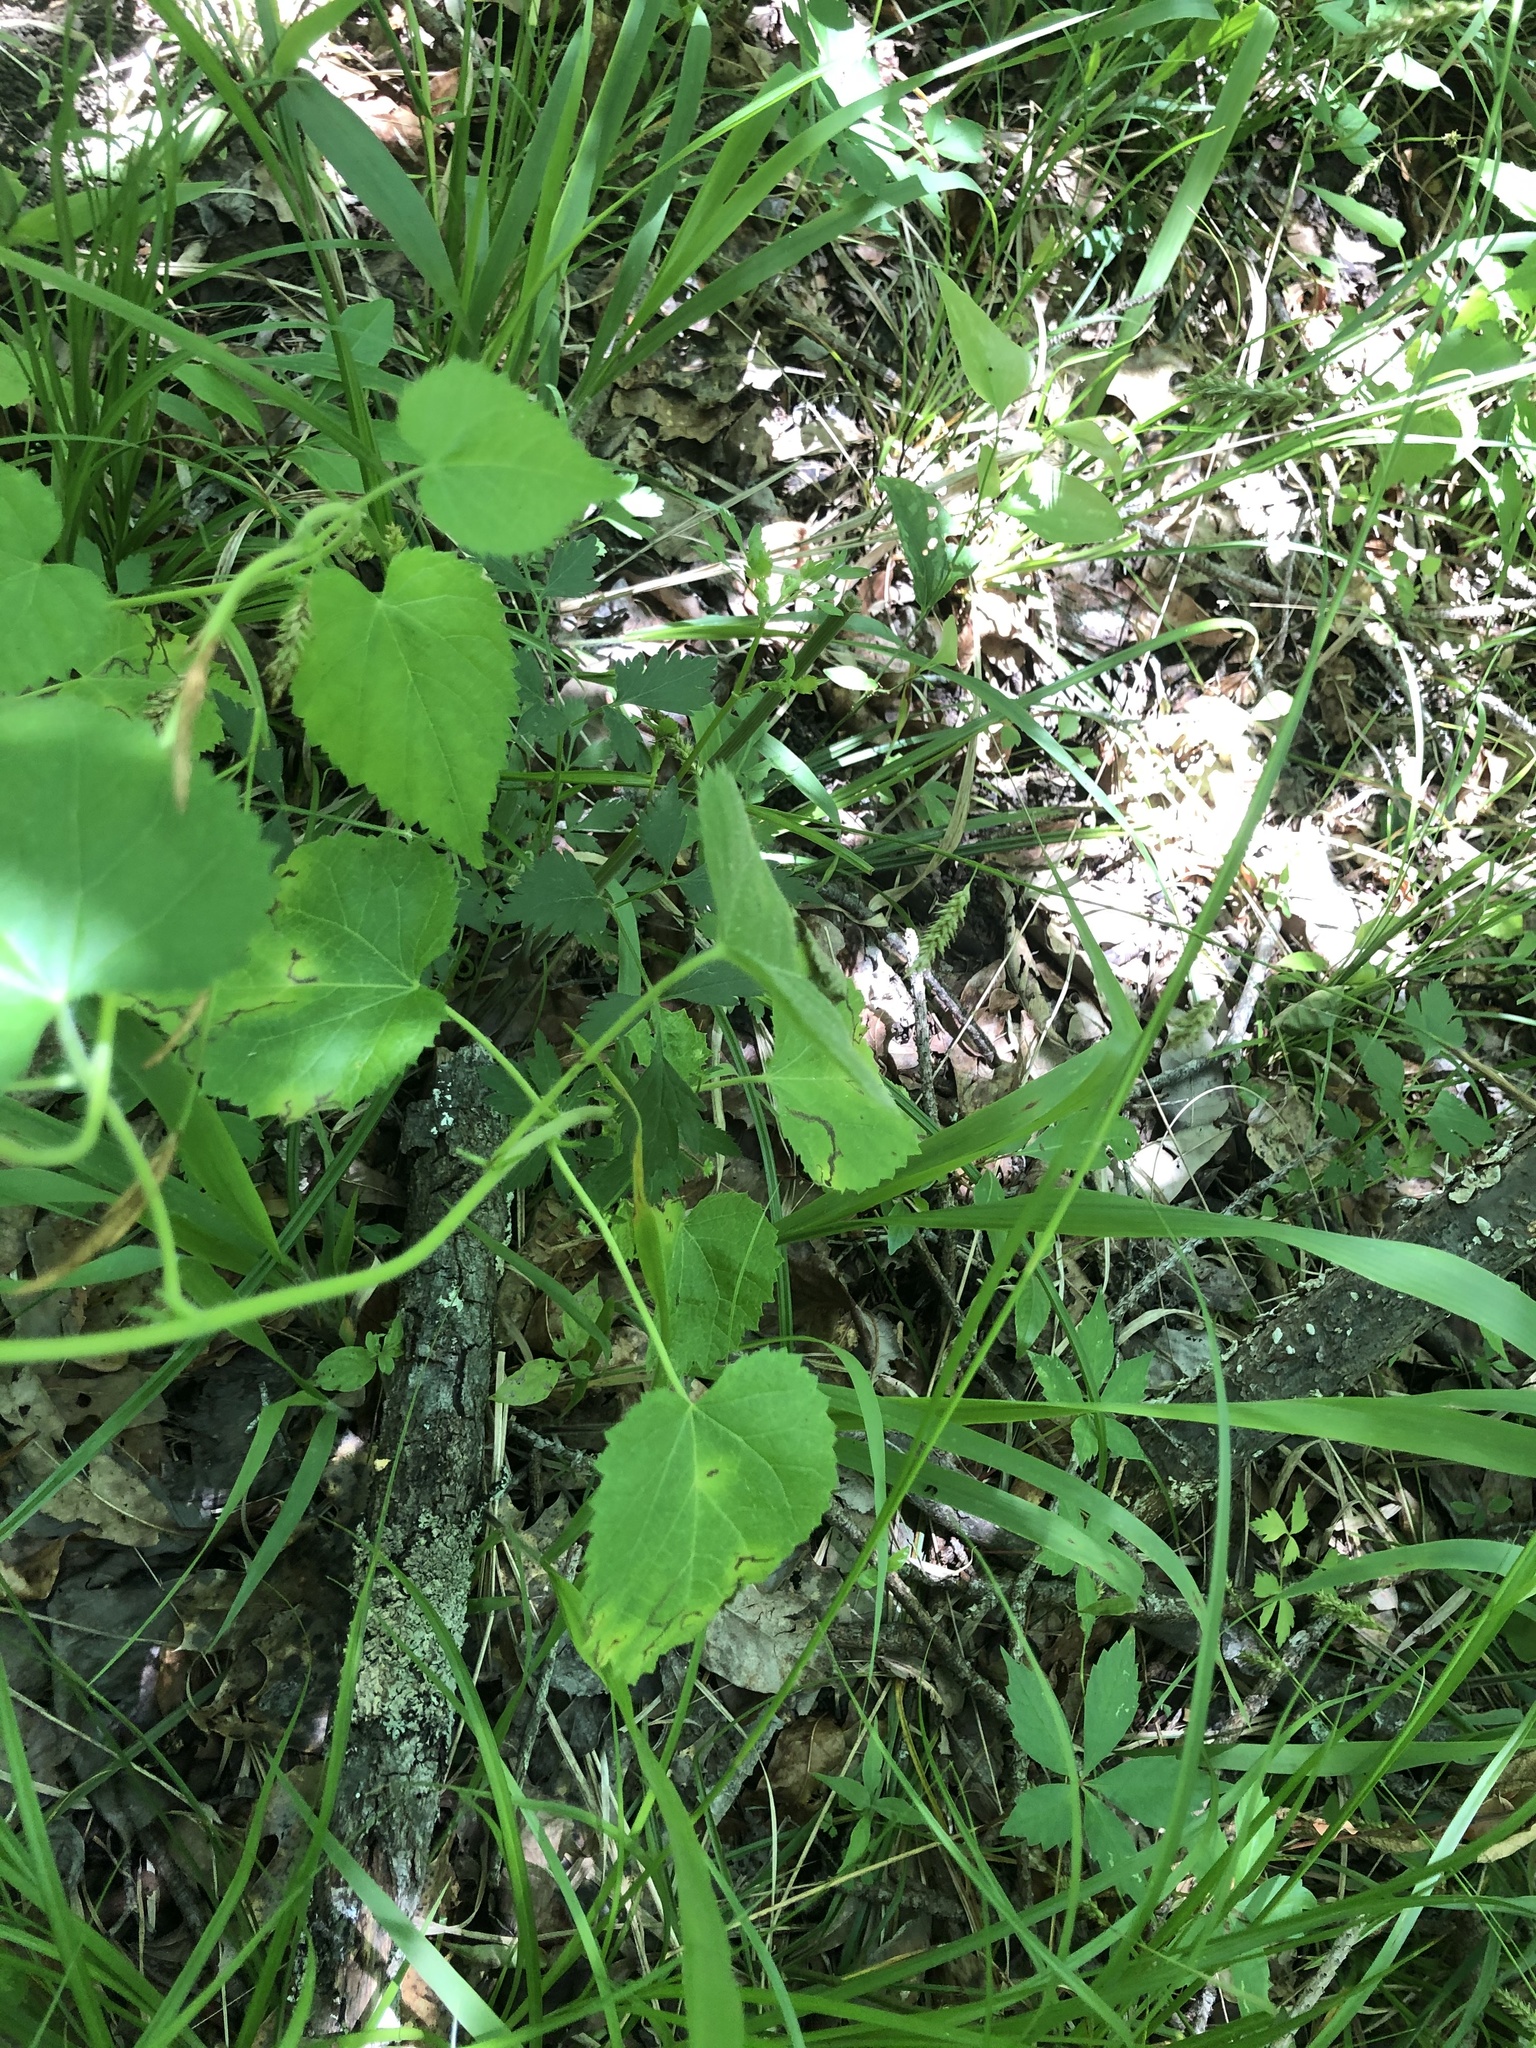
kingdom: Plantae
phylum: Tracheophyta
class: Magnoliopsida
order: Malpighiales
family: Euphorbiaceae
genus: Tragia
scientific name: Tragia cordata
